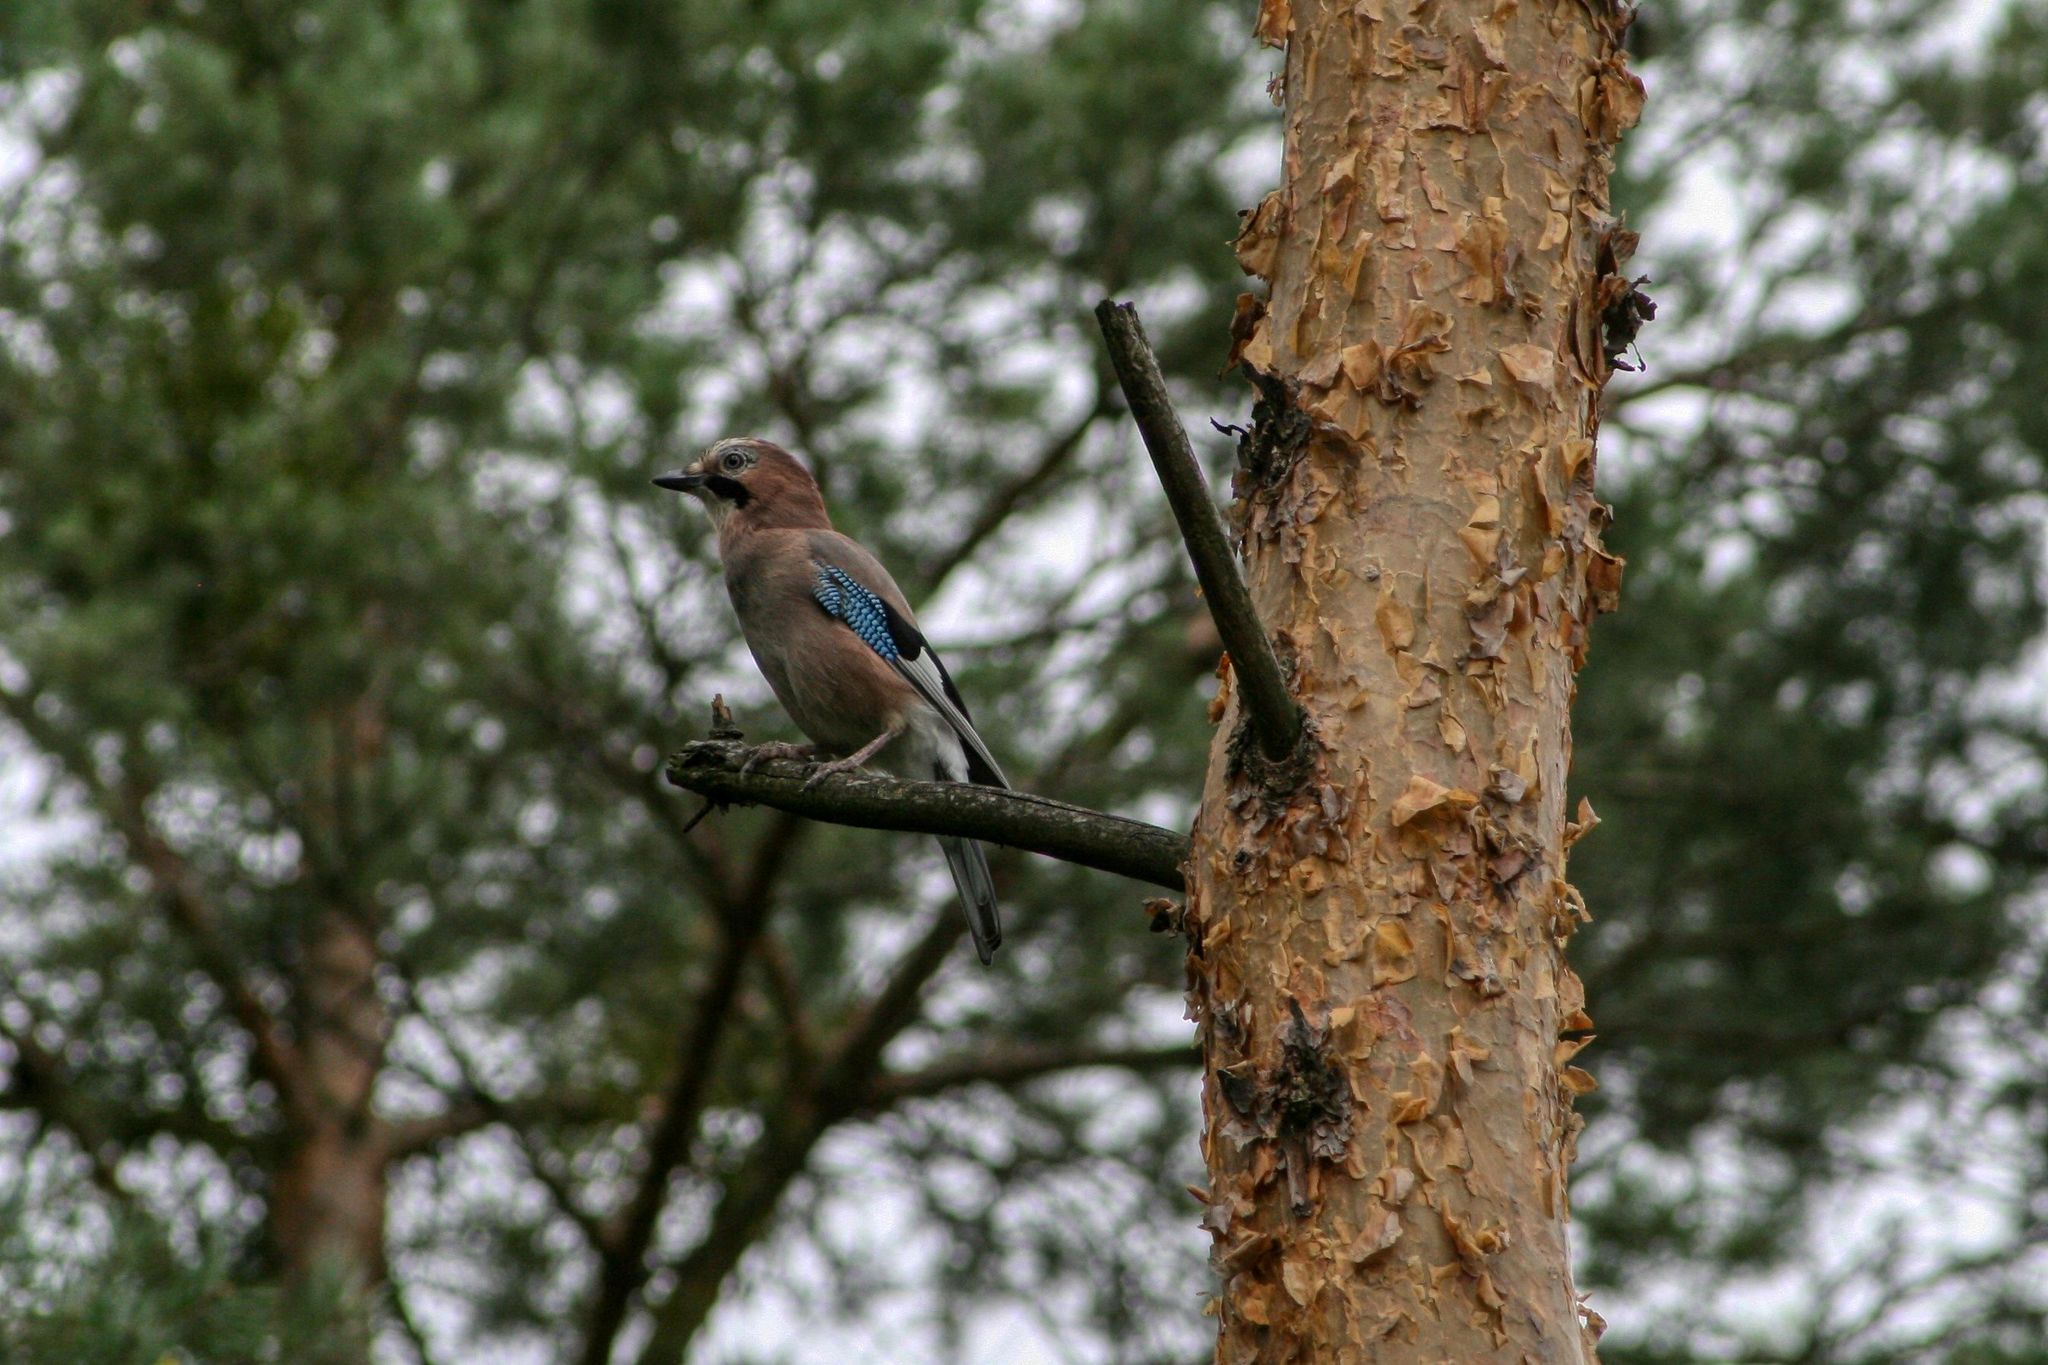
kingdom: Animalia
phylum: Chordata
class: Aves
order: Passeriformes
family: Corvidae
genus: Garrulus
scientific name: Garrulus glandarius
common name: Eurasian jay
